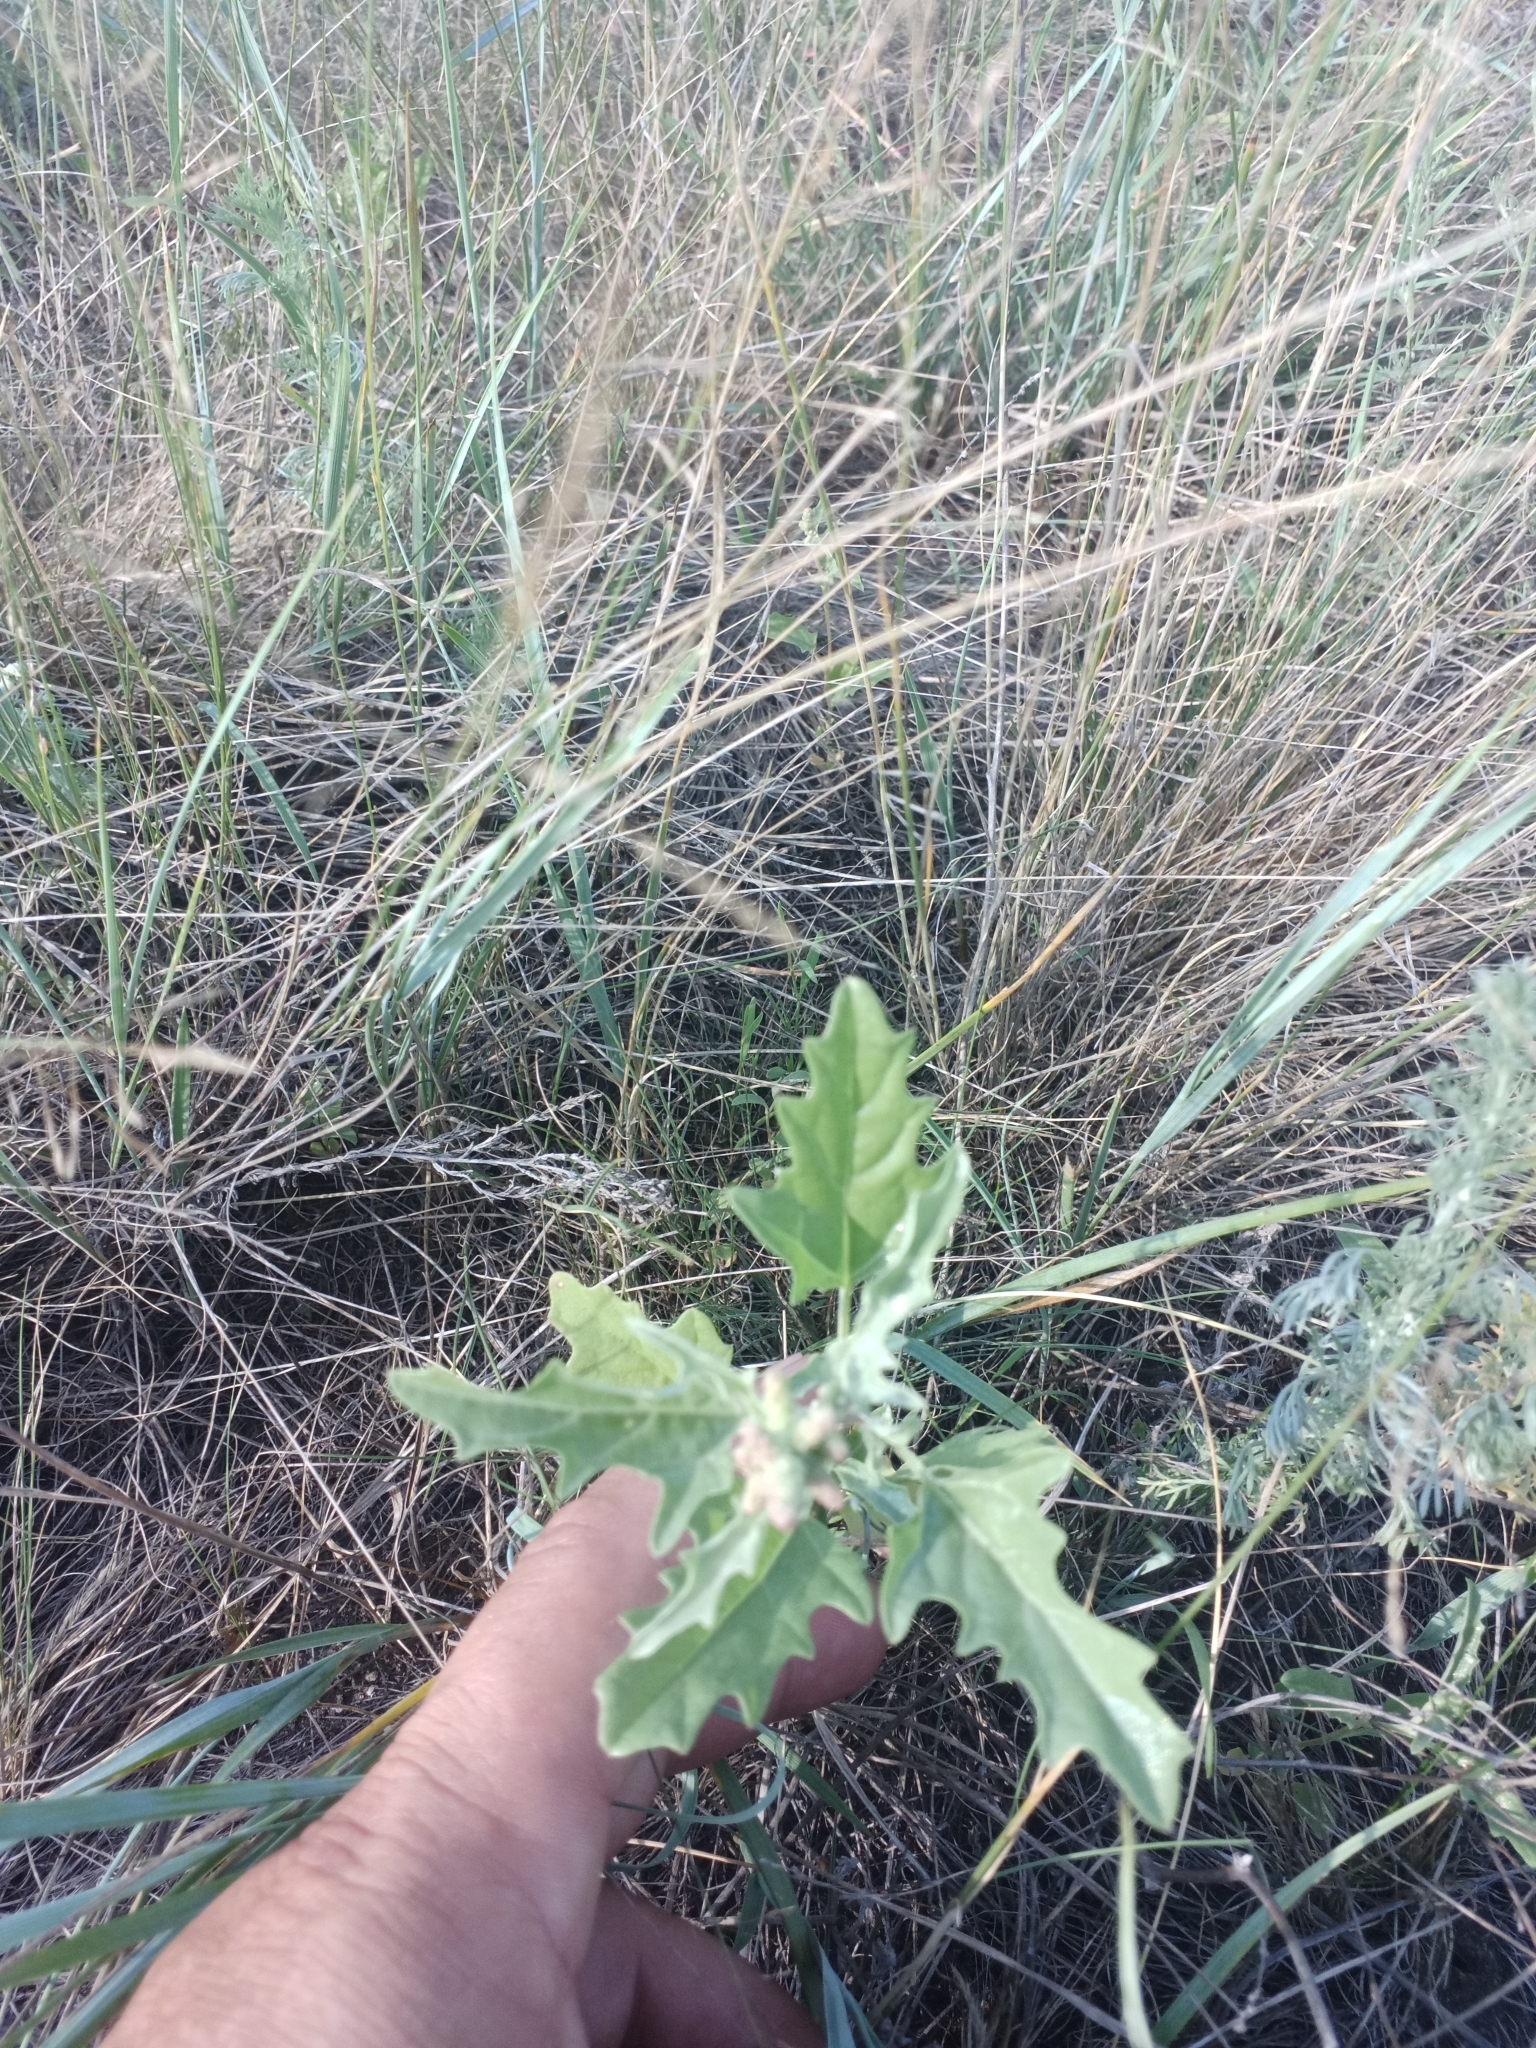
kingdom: Plantae
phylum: Tracheophyta
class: Magnoliopsida
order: Caryophyllales
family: Amaranthaceae
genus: Atriplex
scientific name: Atriplex tatarica
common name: Tatarian orache
